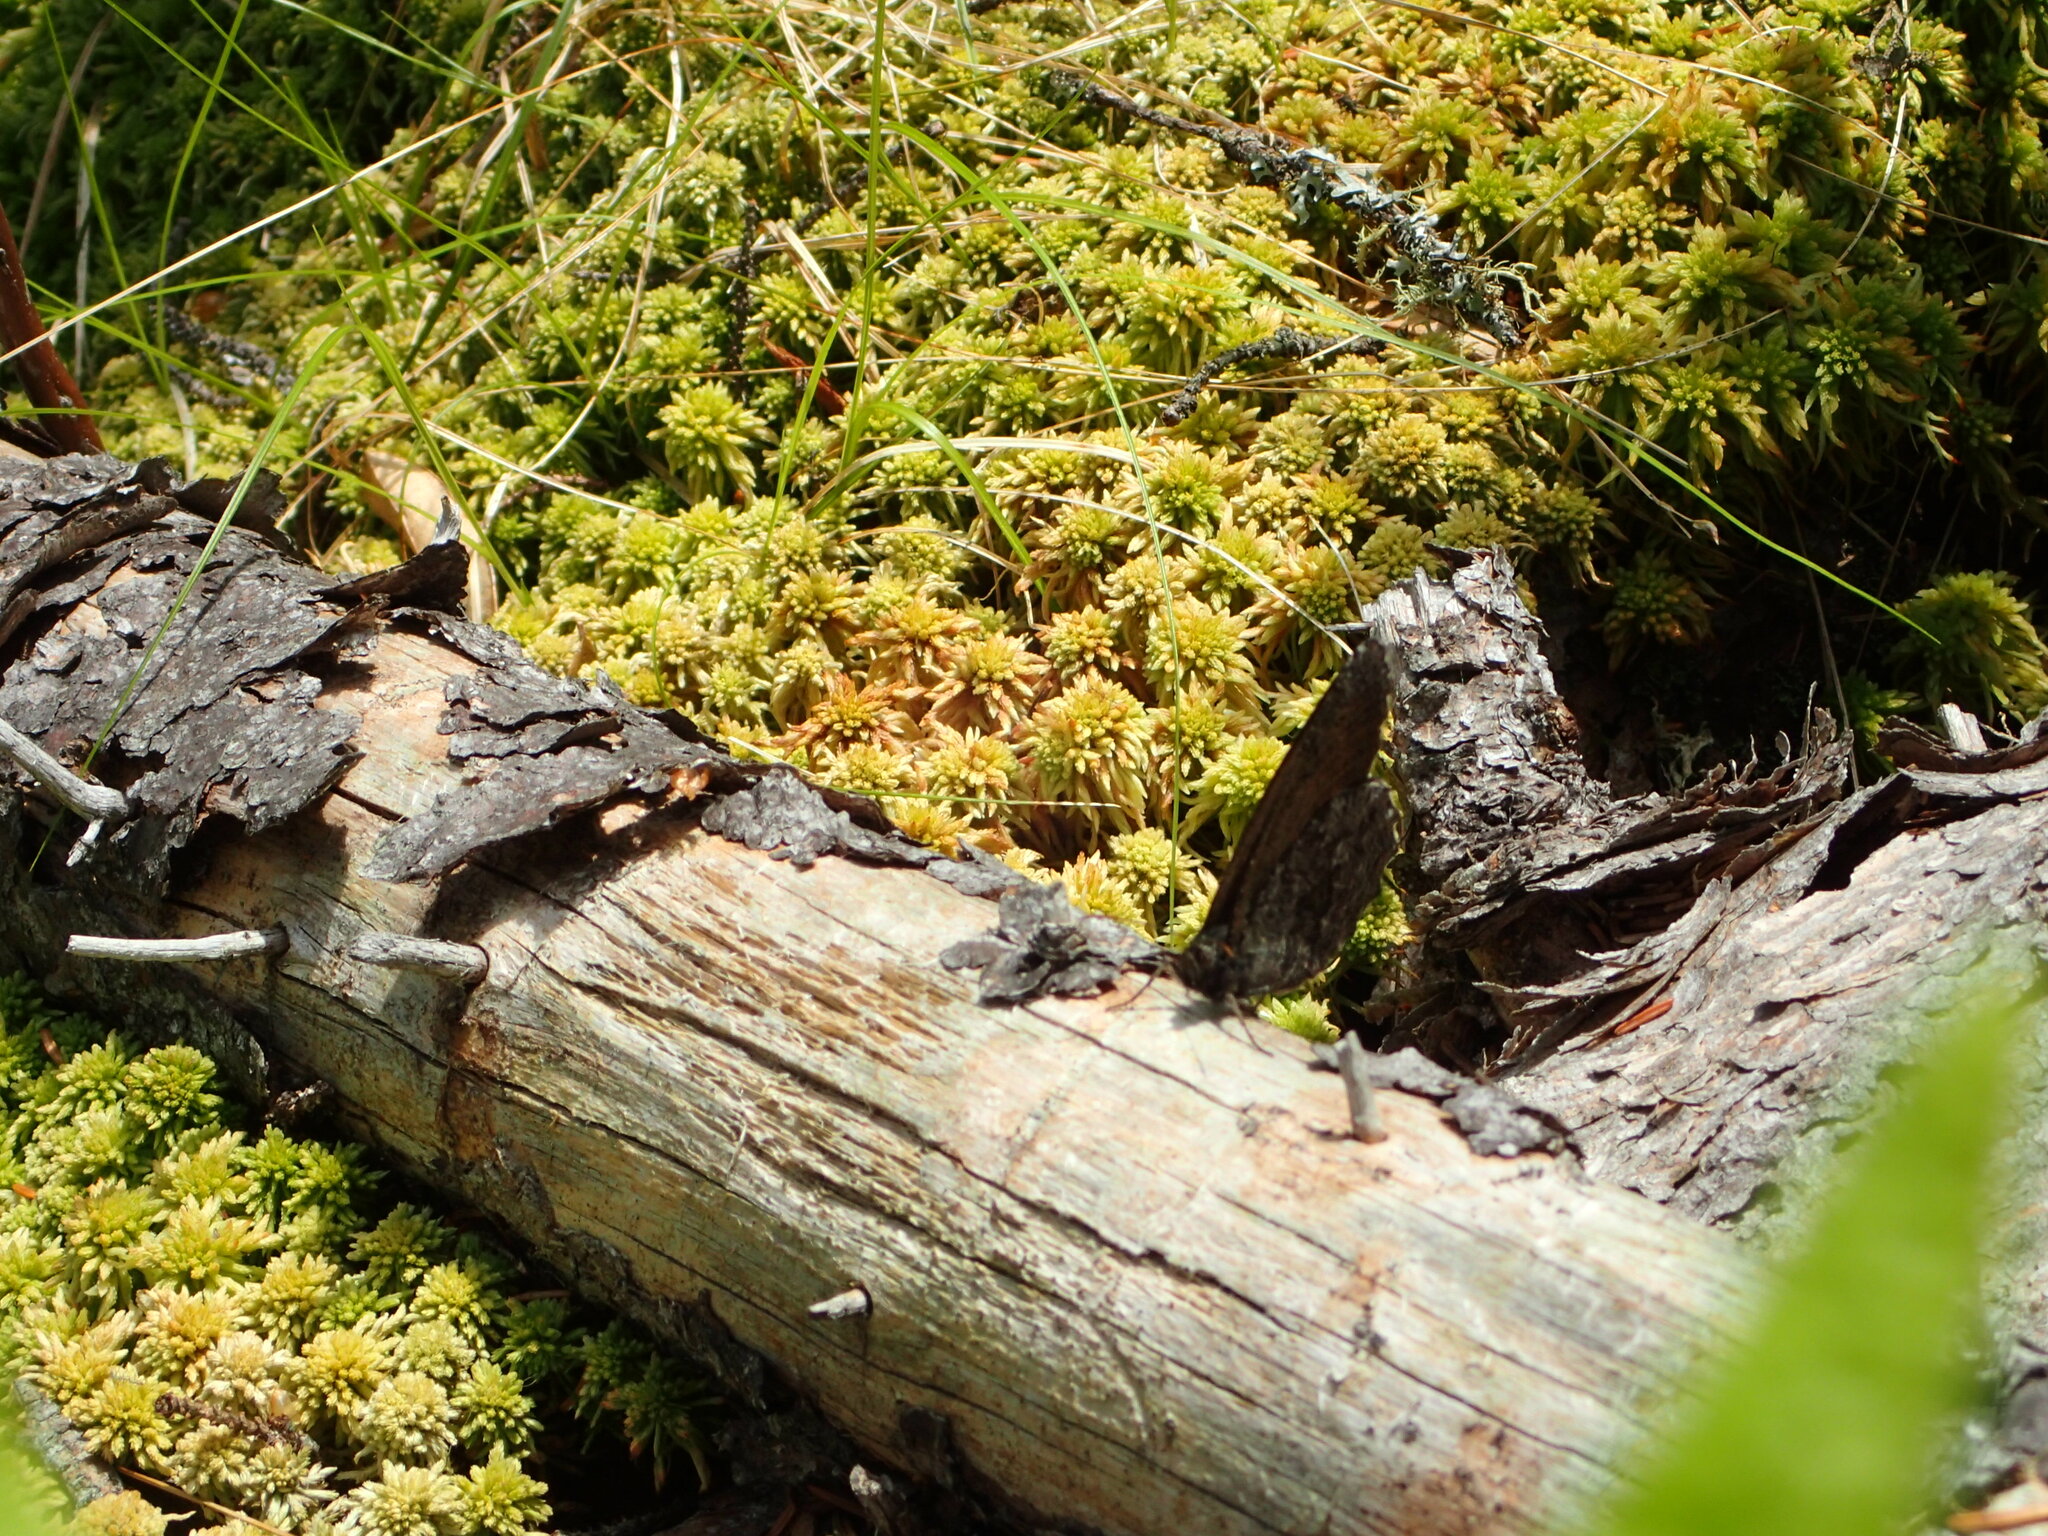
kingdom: Animalia
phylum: Arthropoda
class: Insecta
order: Lepidoptera
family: Nymphalidae
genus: Oeneis
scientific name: Oeneis jutta
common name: Baltic grayling
